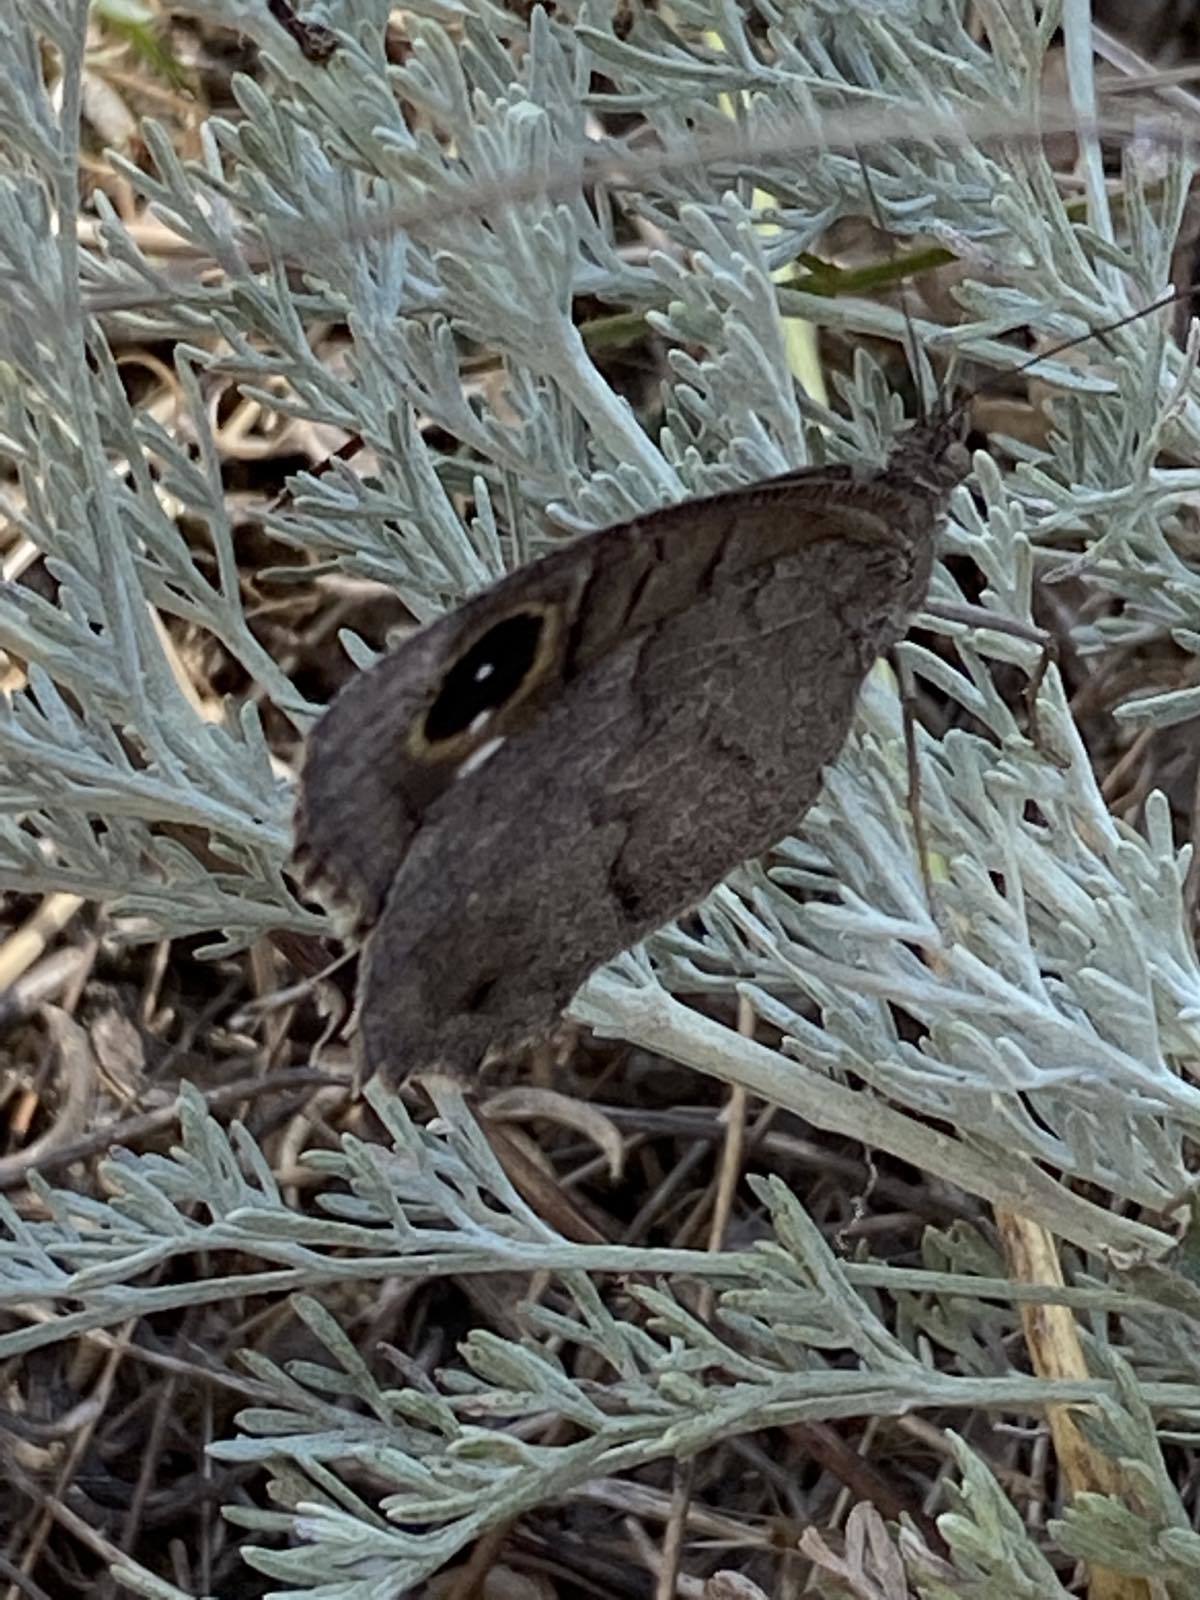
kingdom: Animalia
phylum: Arthropoda
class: Insecta
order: Lepidoptera
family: Nymphalidae
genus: Hipparchia
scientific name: Hipparchia statilinus
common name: Tree grayling
